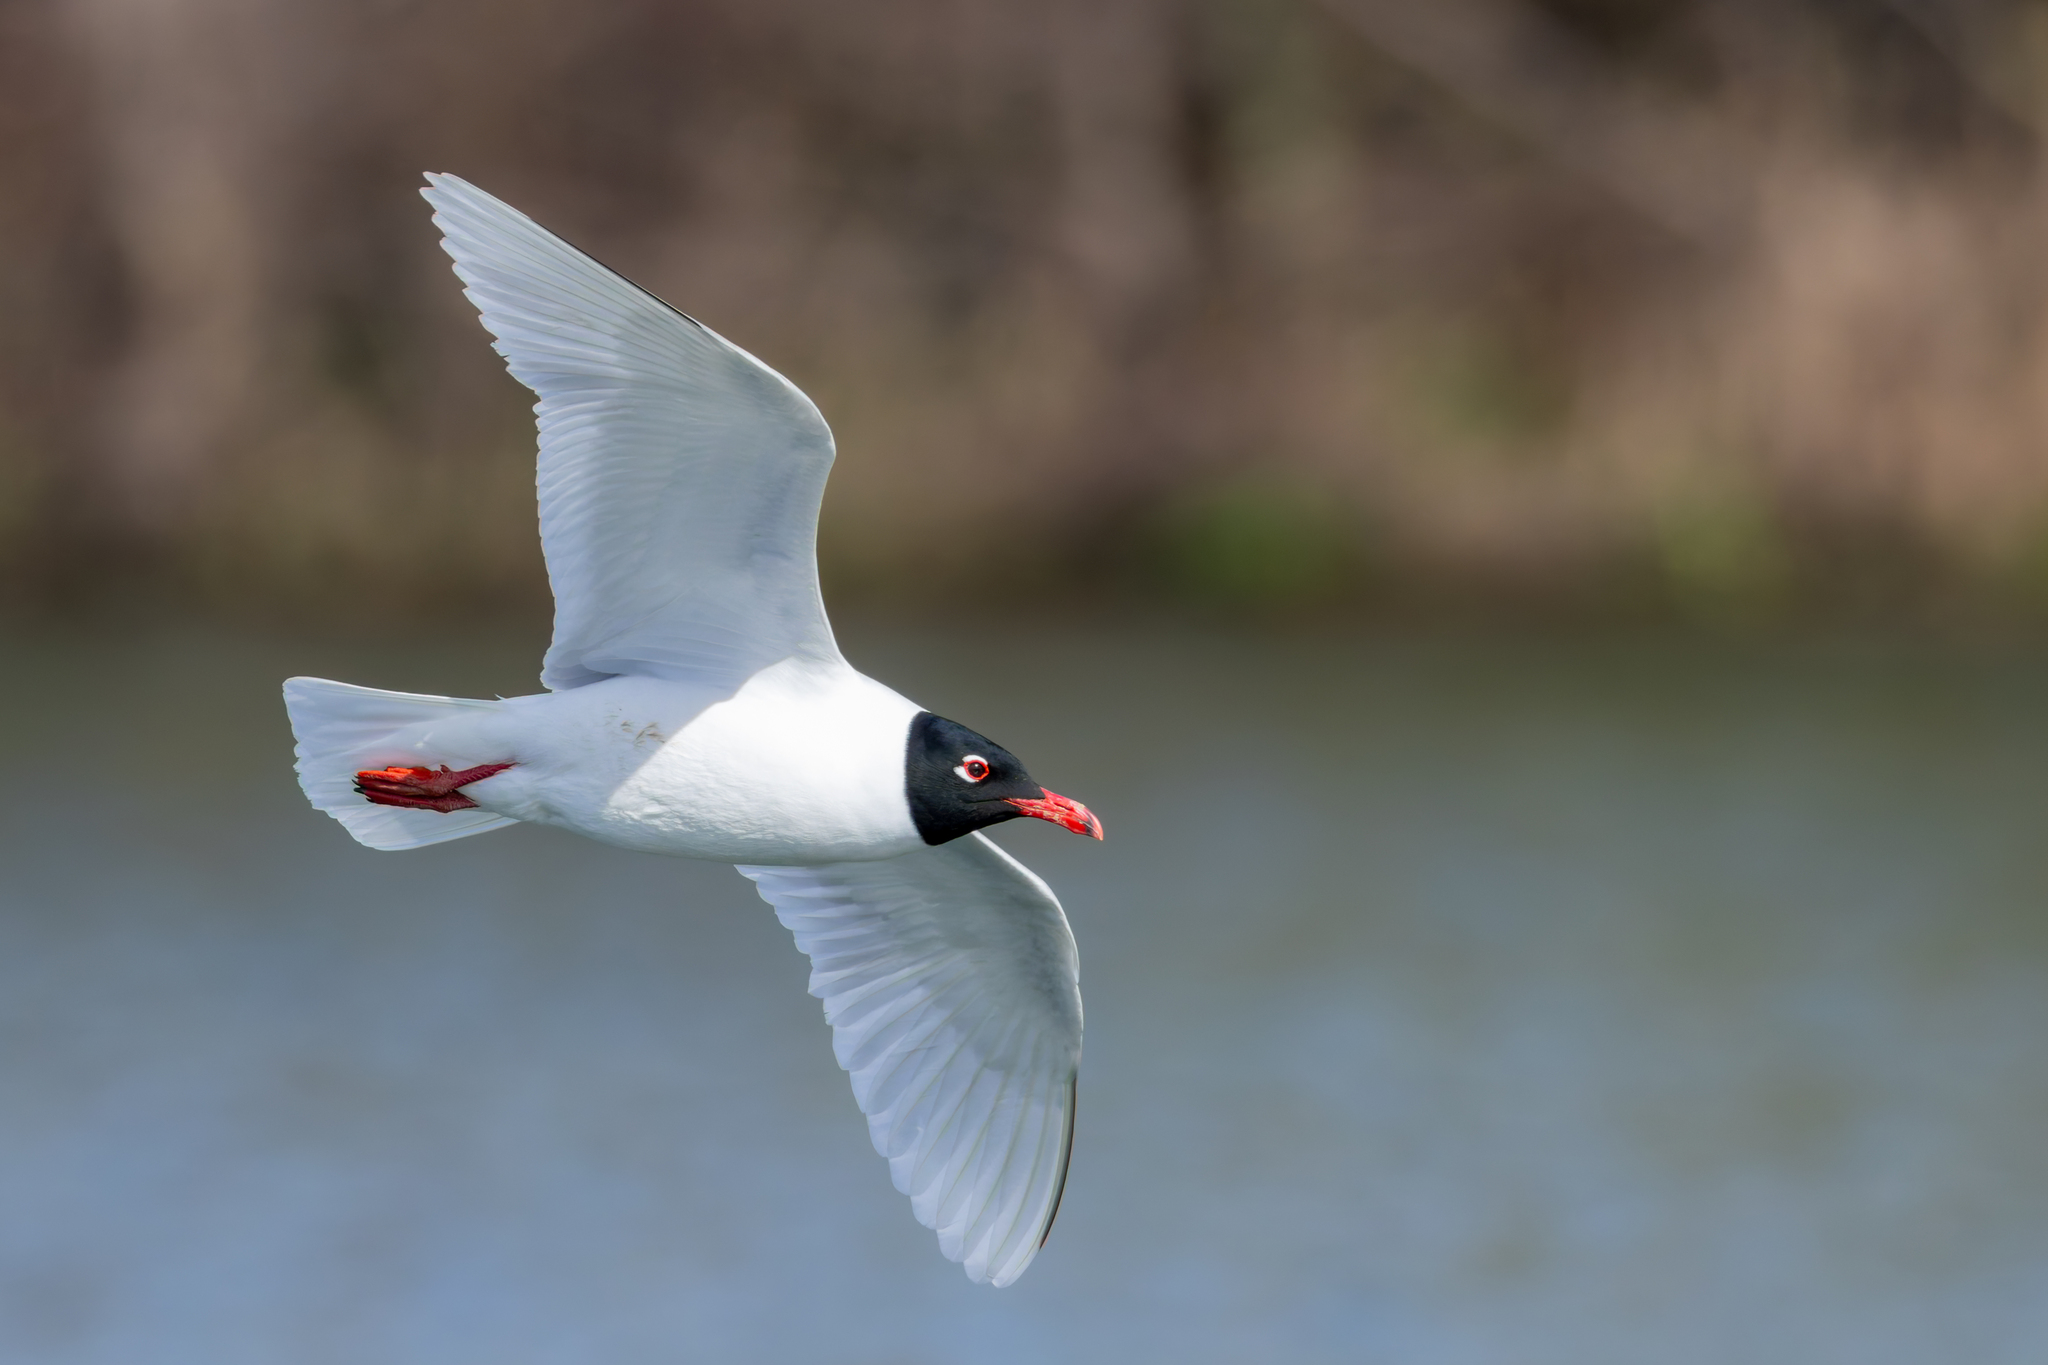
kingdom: Animalia
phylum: Chordata
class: Aves
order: Charadriiformes
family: Laridae
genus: Ichthyaetus
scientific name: Ichthyaetus melanocephalus
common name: Mediterranean gull
